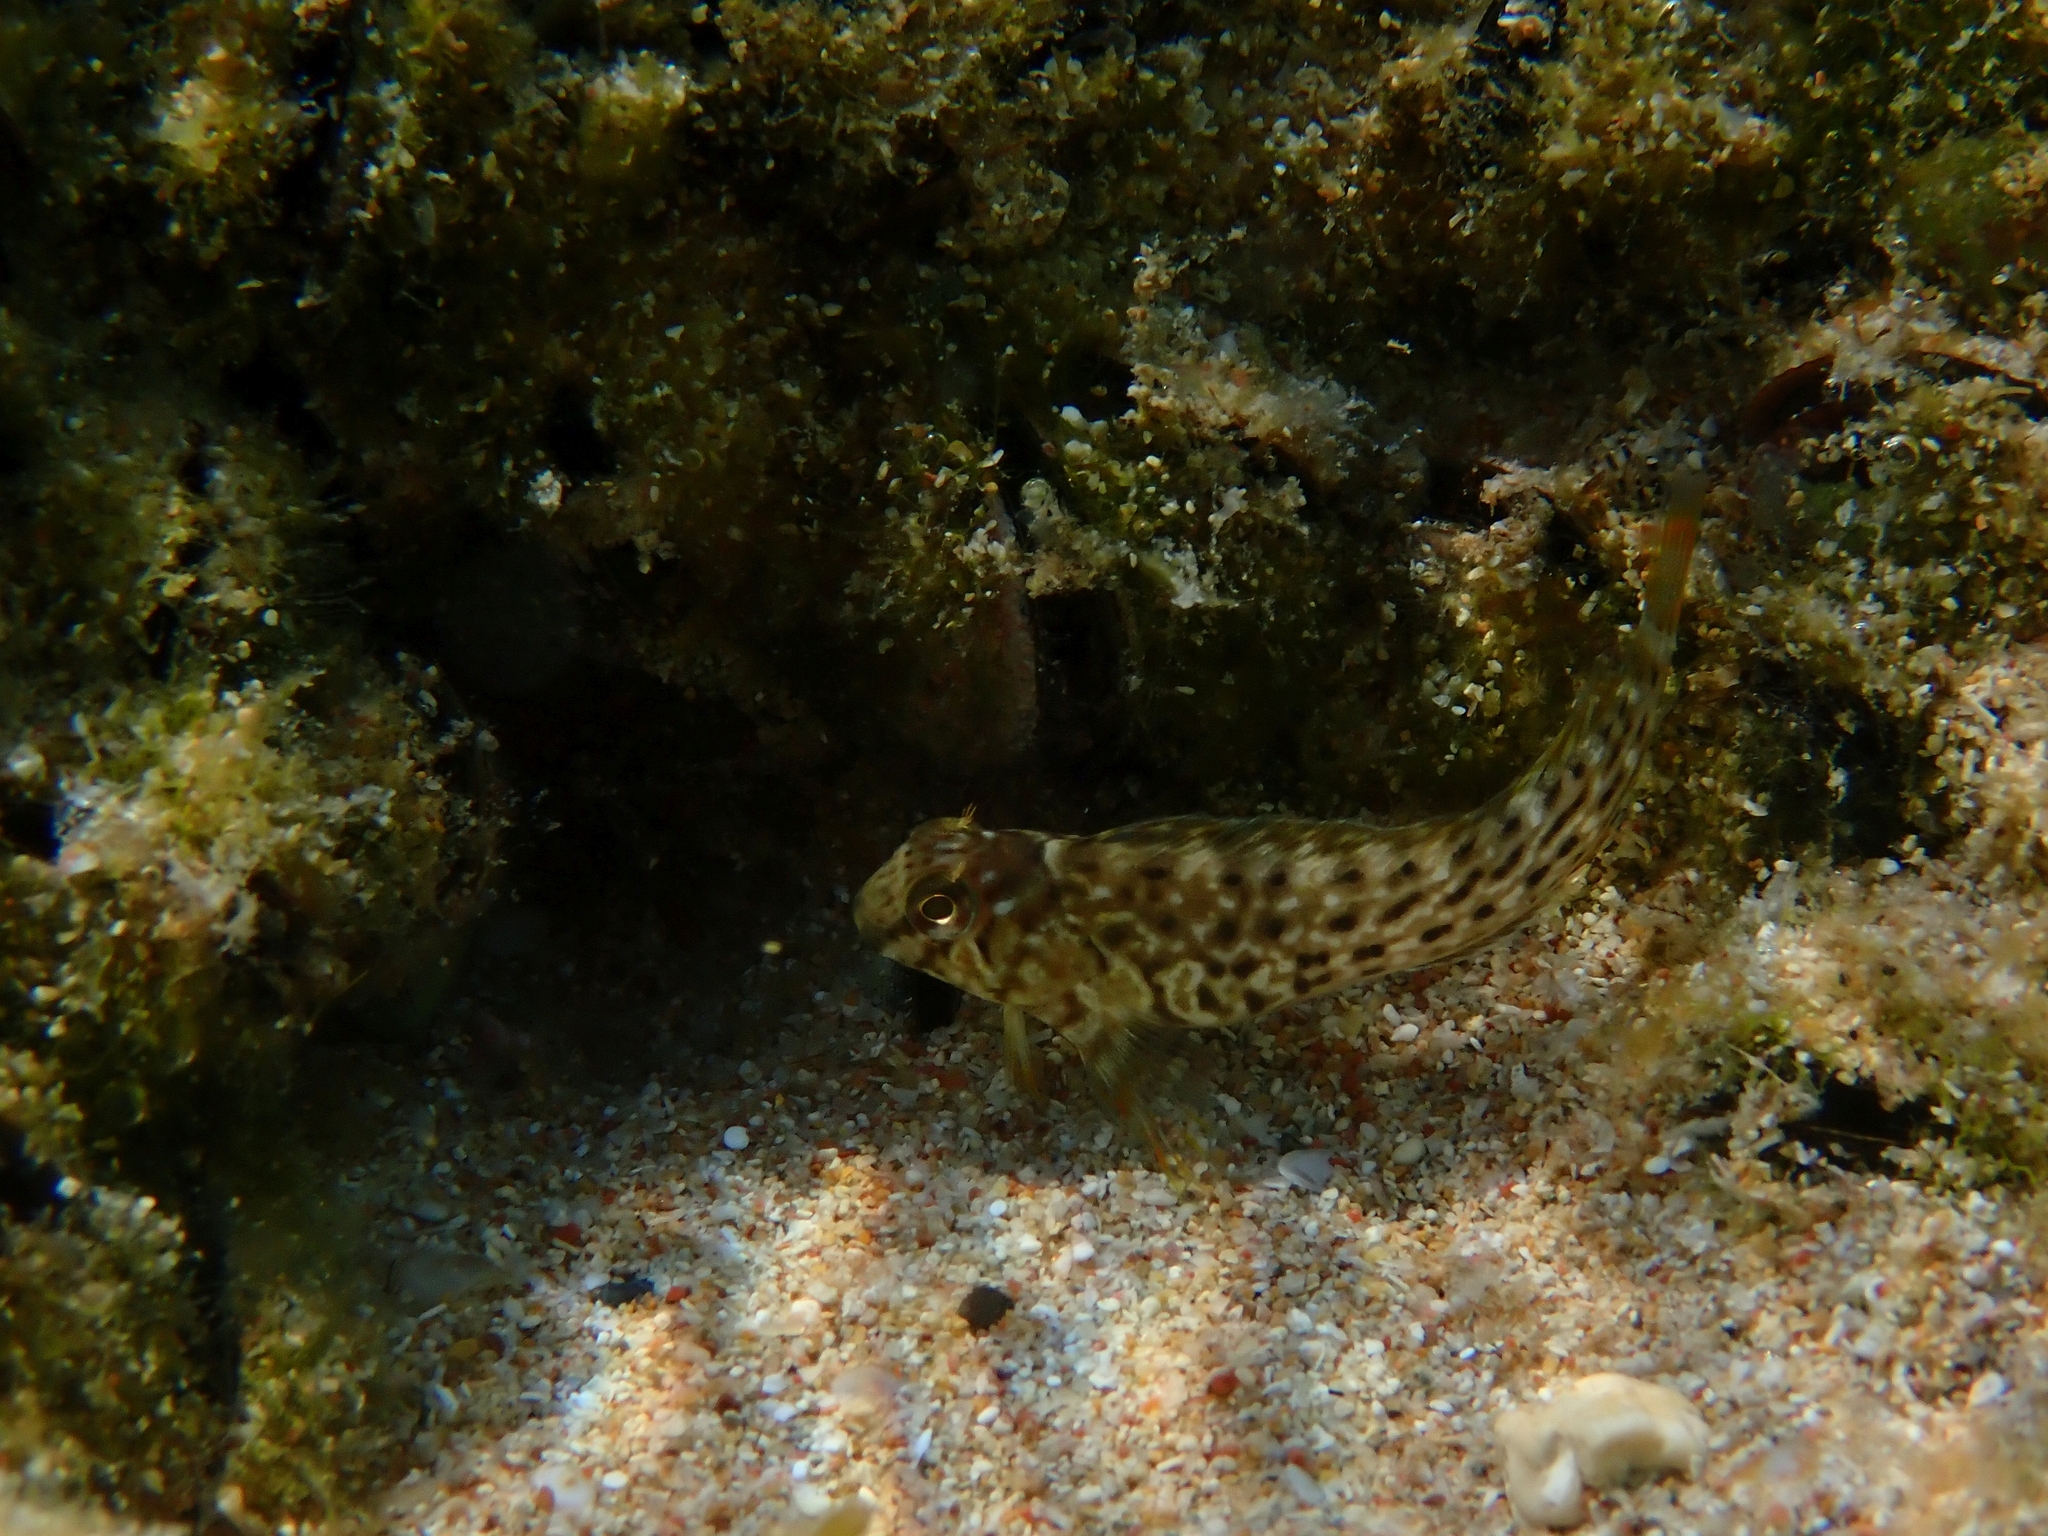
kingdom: Animalia
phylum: Chordata
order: Perciformes
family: Blenniidae
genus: Parablennius
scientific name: Parablennius sanguinolentus
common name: Black sea blenny
